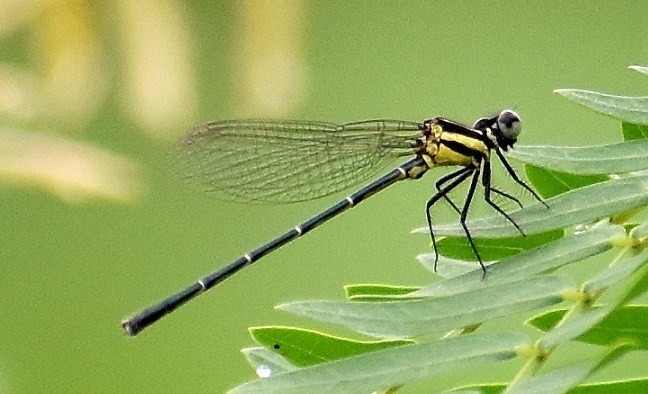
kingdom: Animalia
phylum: Arthropoda
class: Insecta
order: Odonata
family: Platycnemididae
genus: Onychargia
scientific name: Onychargia atrocyana
